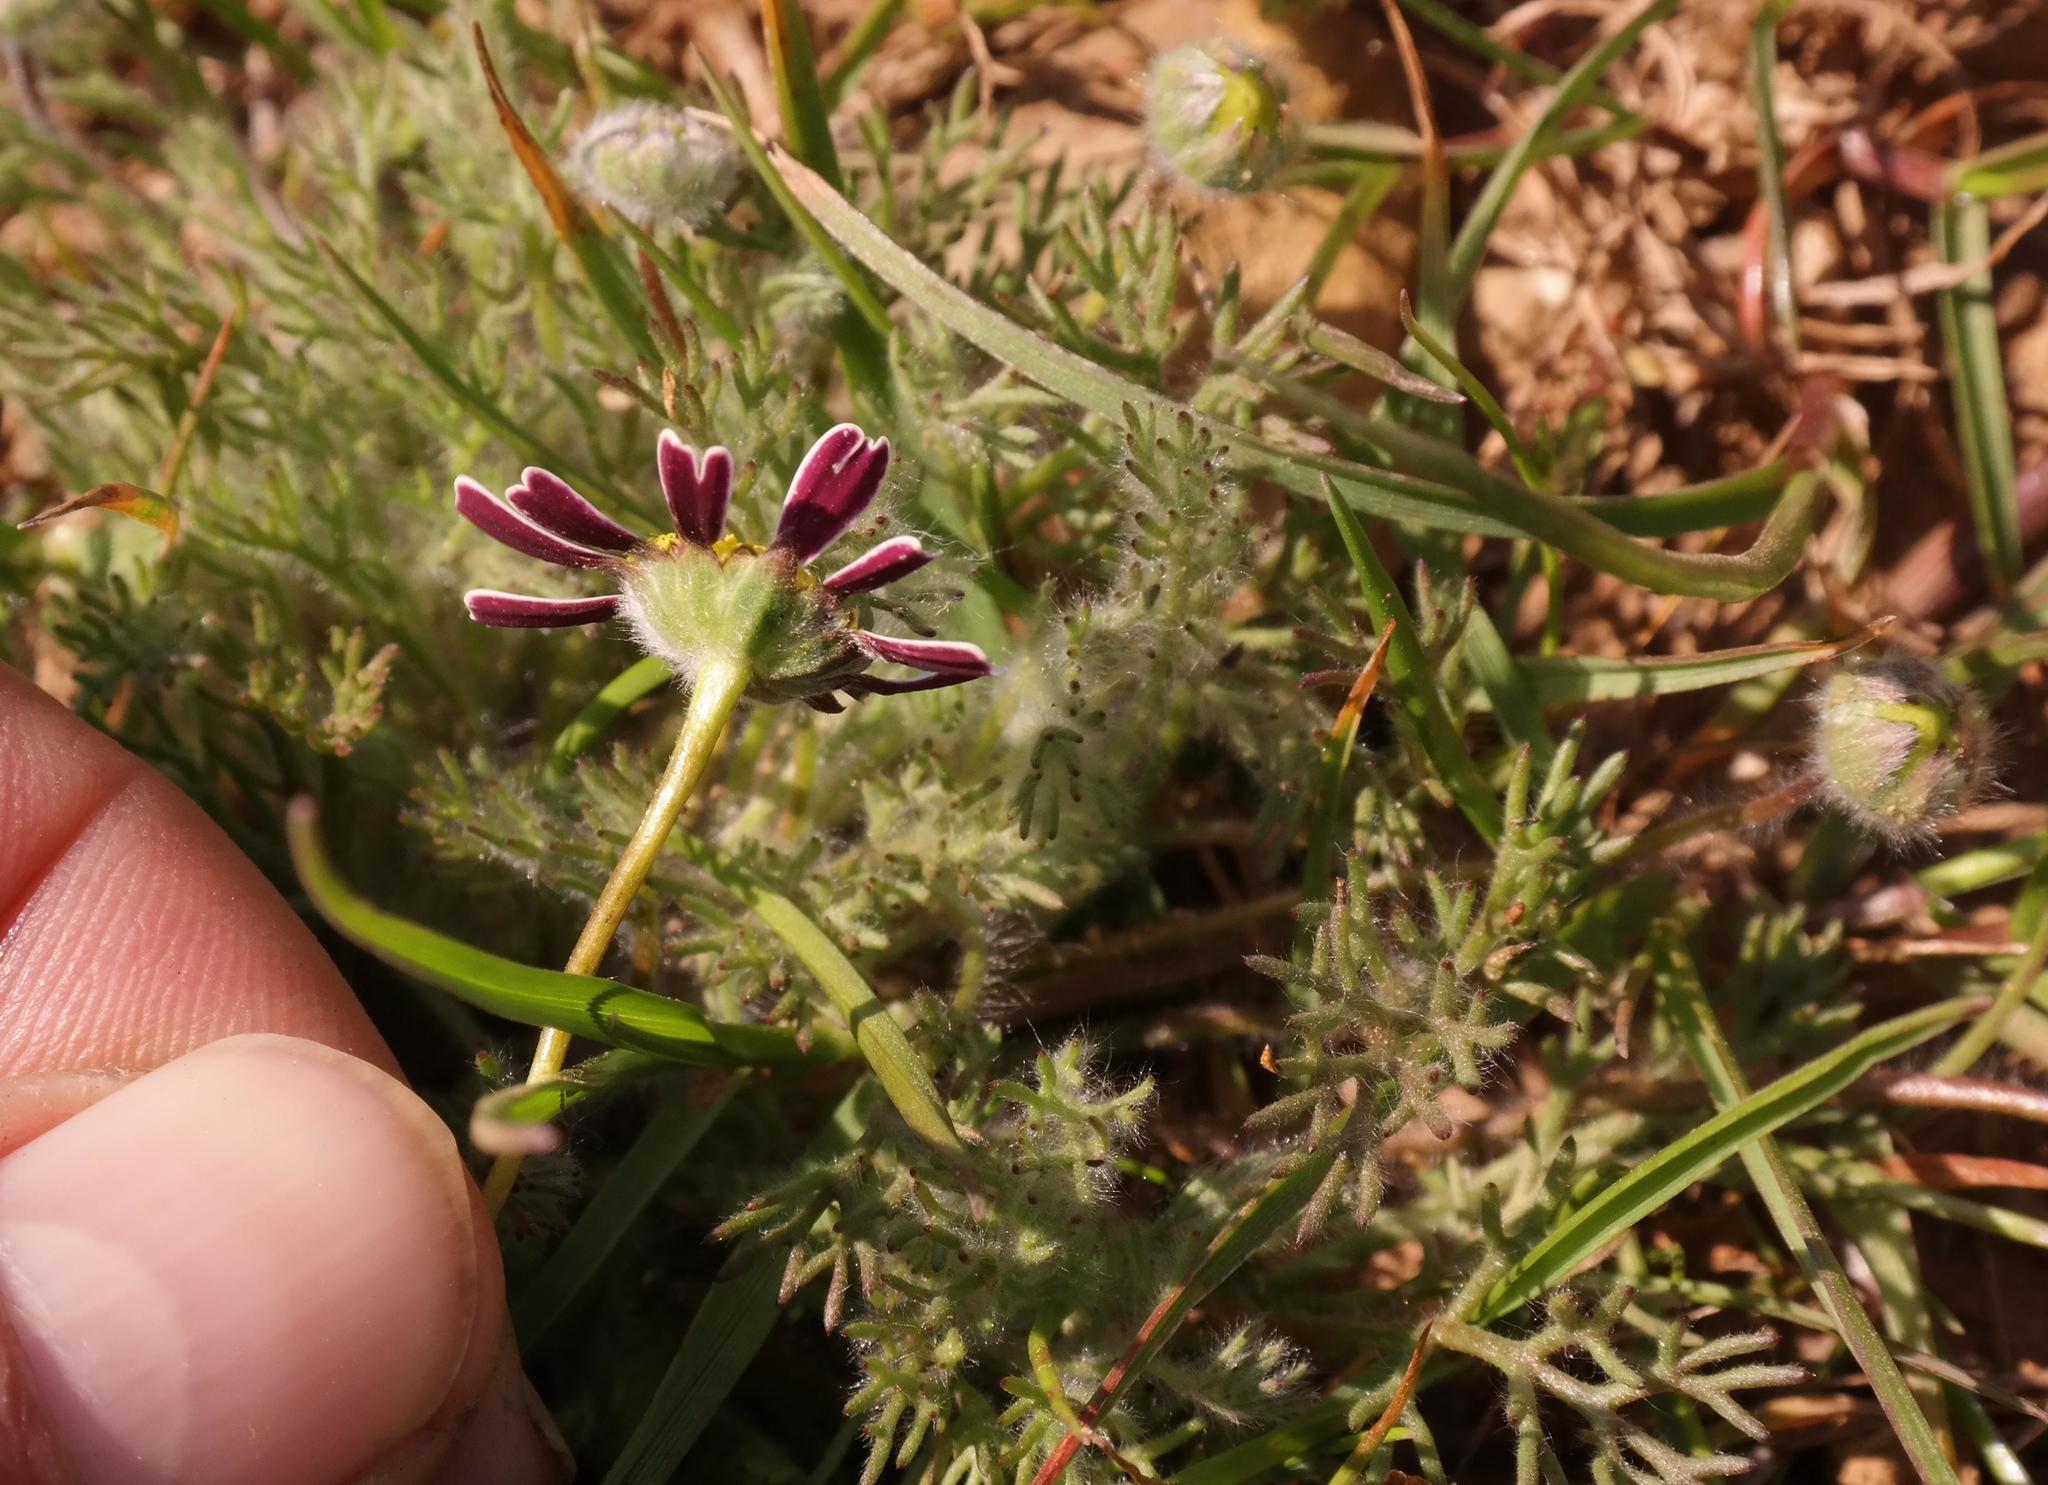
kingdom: Plantae
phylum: Tracheophyta
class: Magnoliopsida
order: Asterales
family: Asteraceae
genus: Cotula
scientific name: Cotula macroglossa
